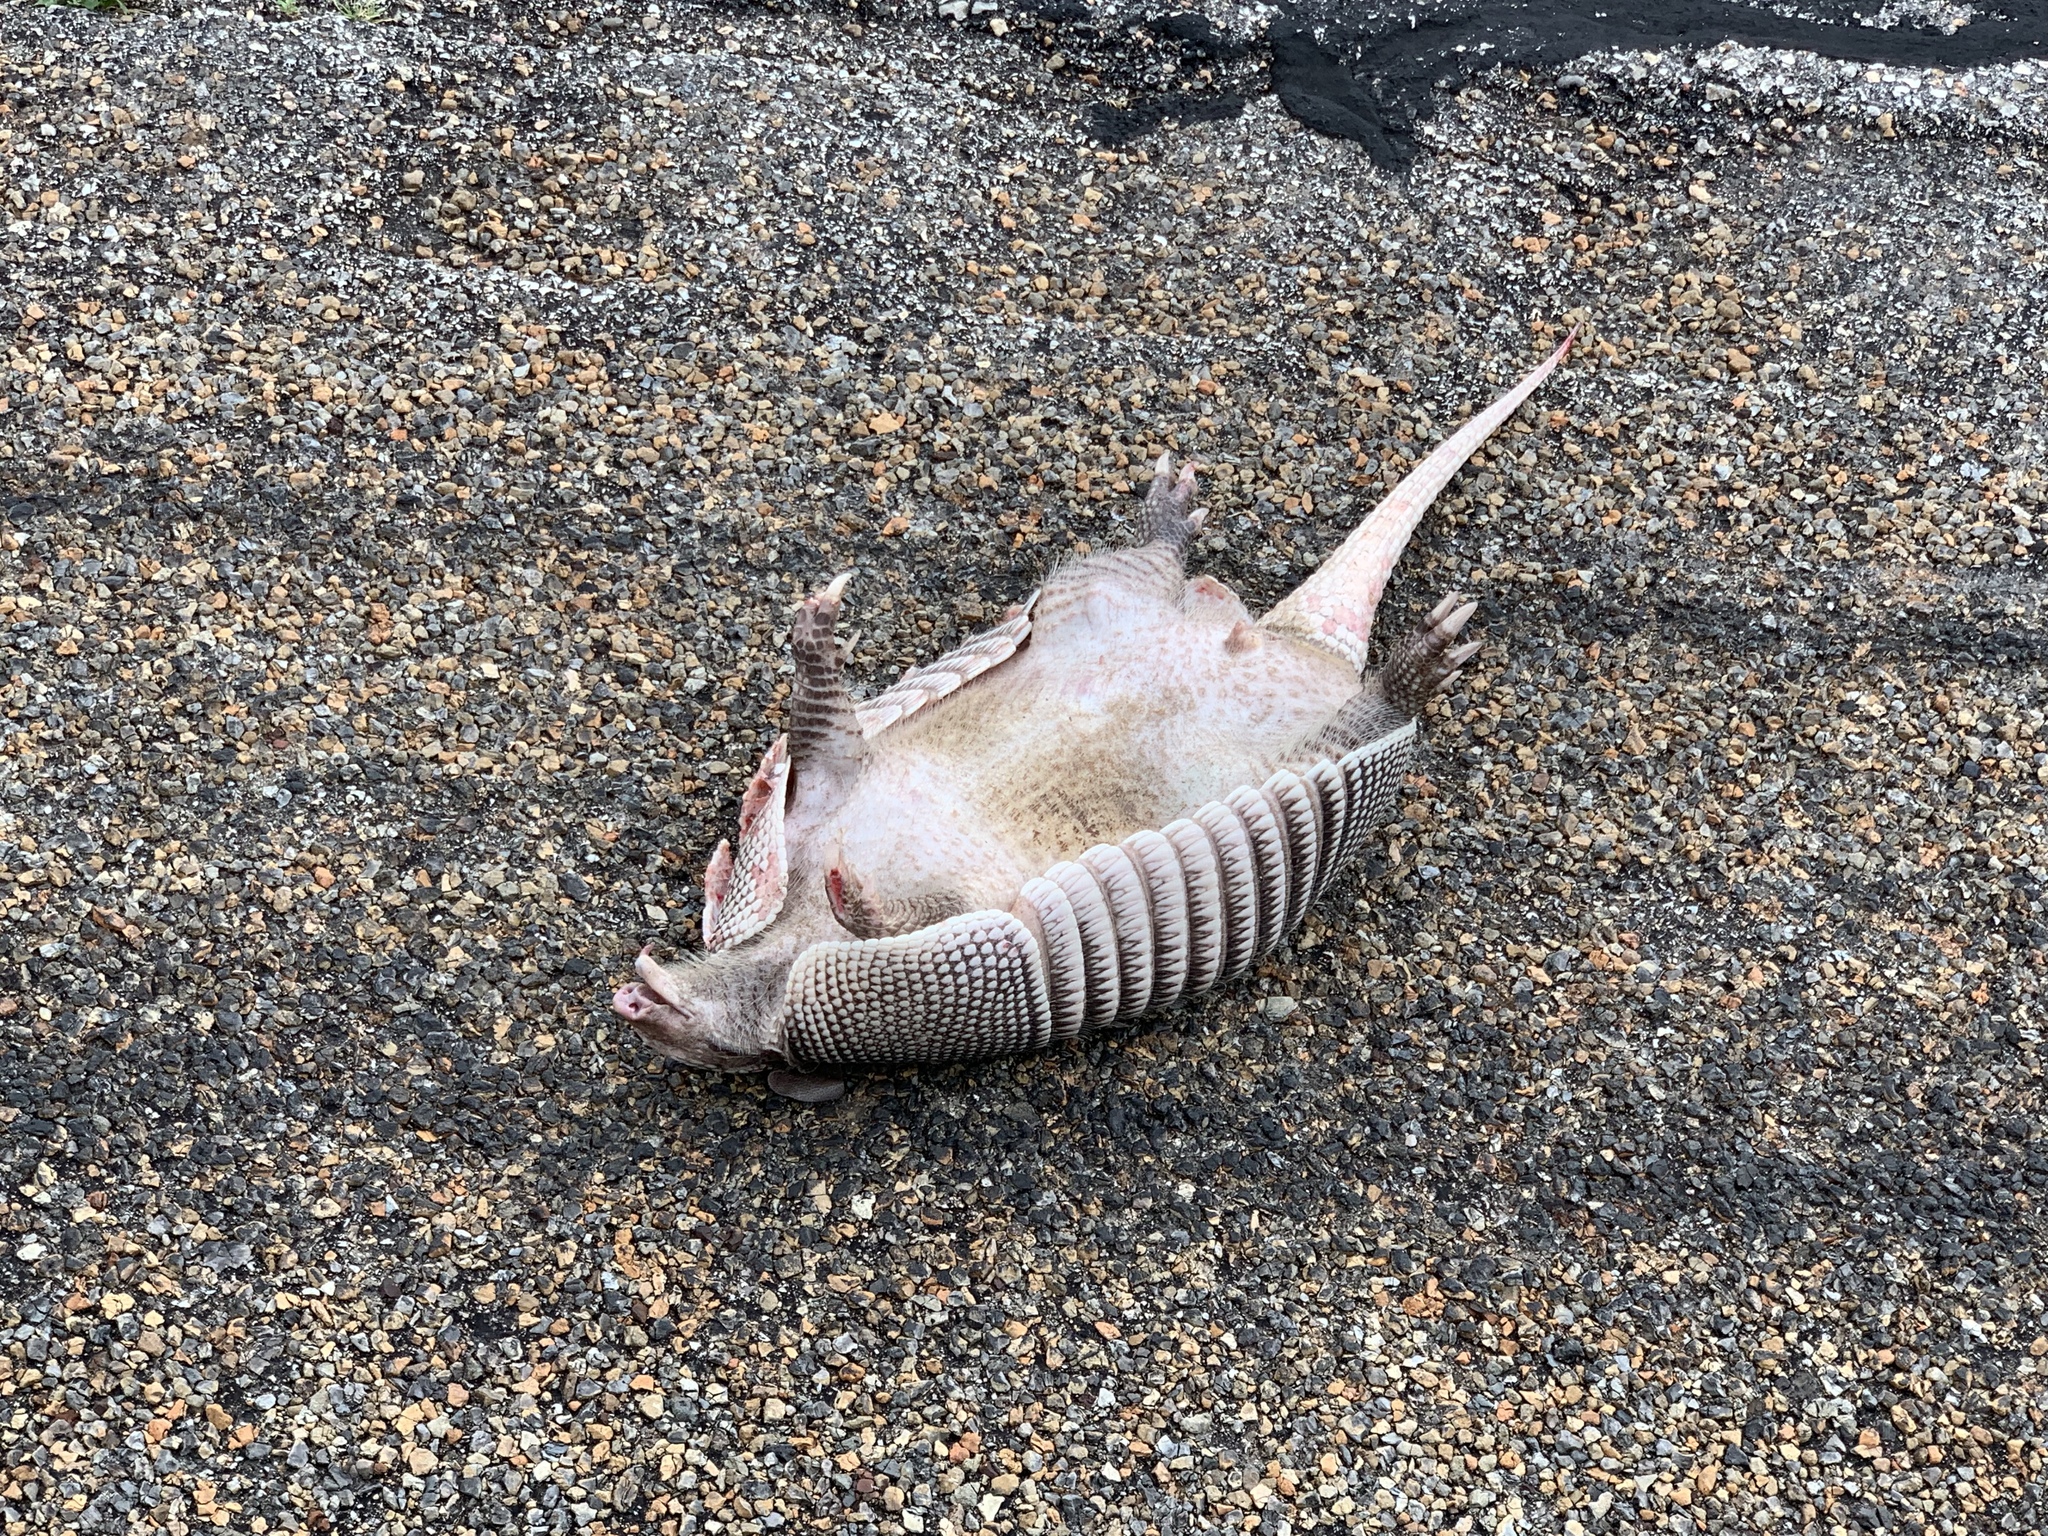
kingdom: Animalia
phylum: Chordata
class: Mammalia
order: Cingulata
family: Dasypodidae
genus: Dasypus
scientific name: Dasypus novemcinctus
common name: Nine-banded armadillo
